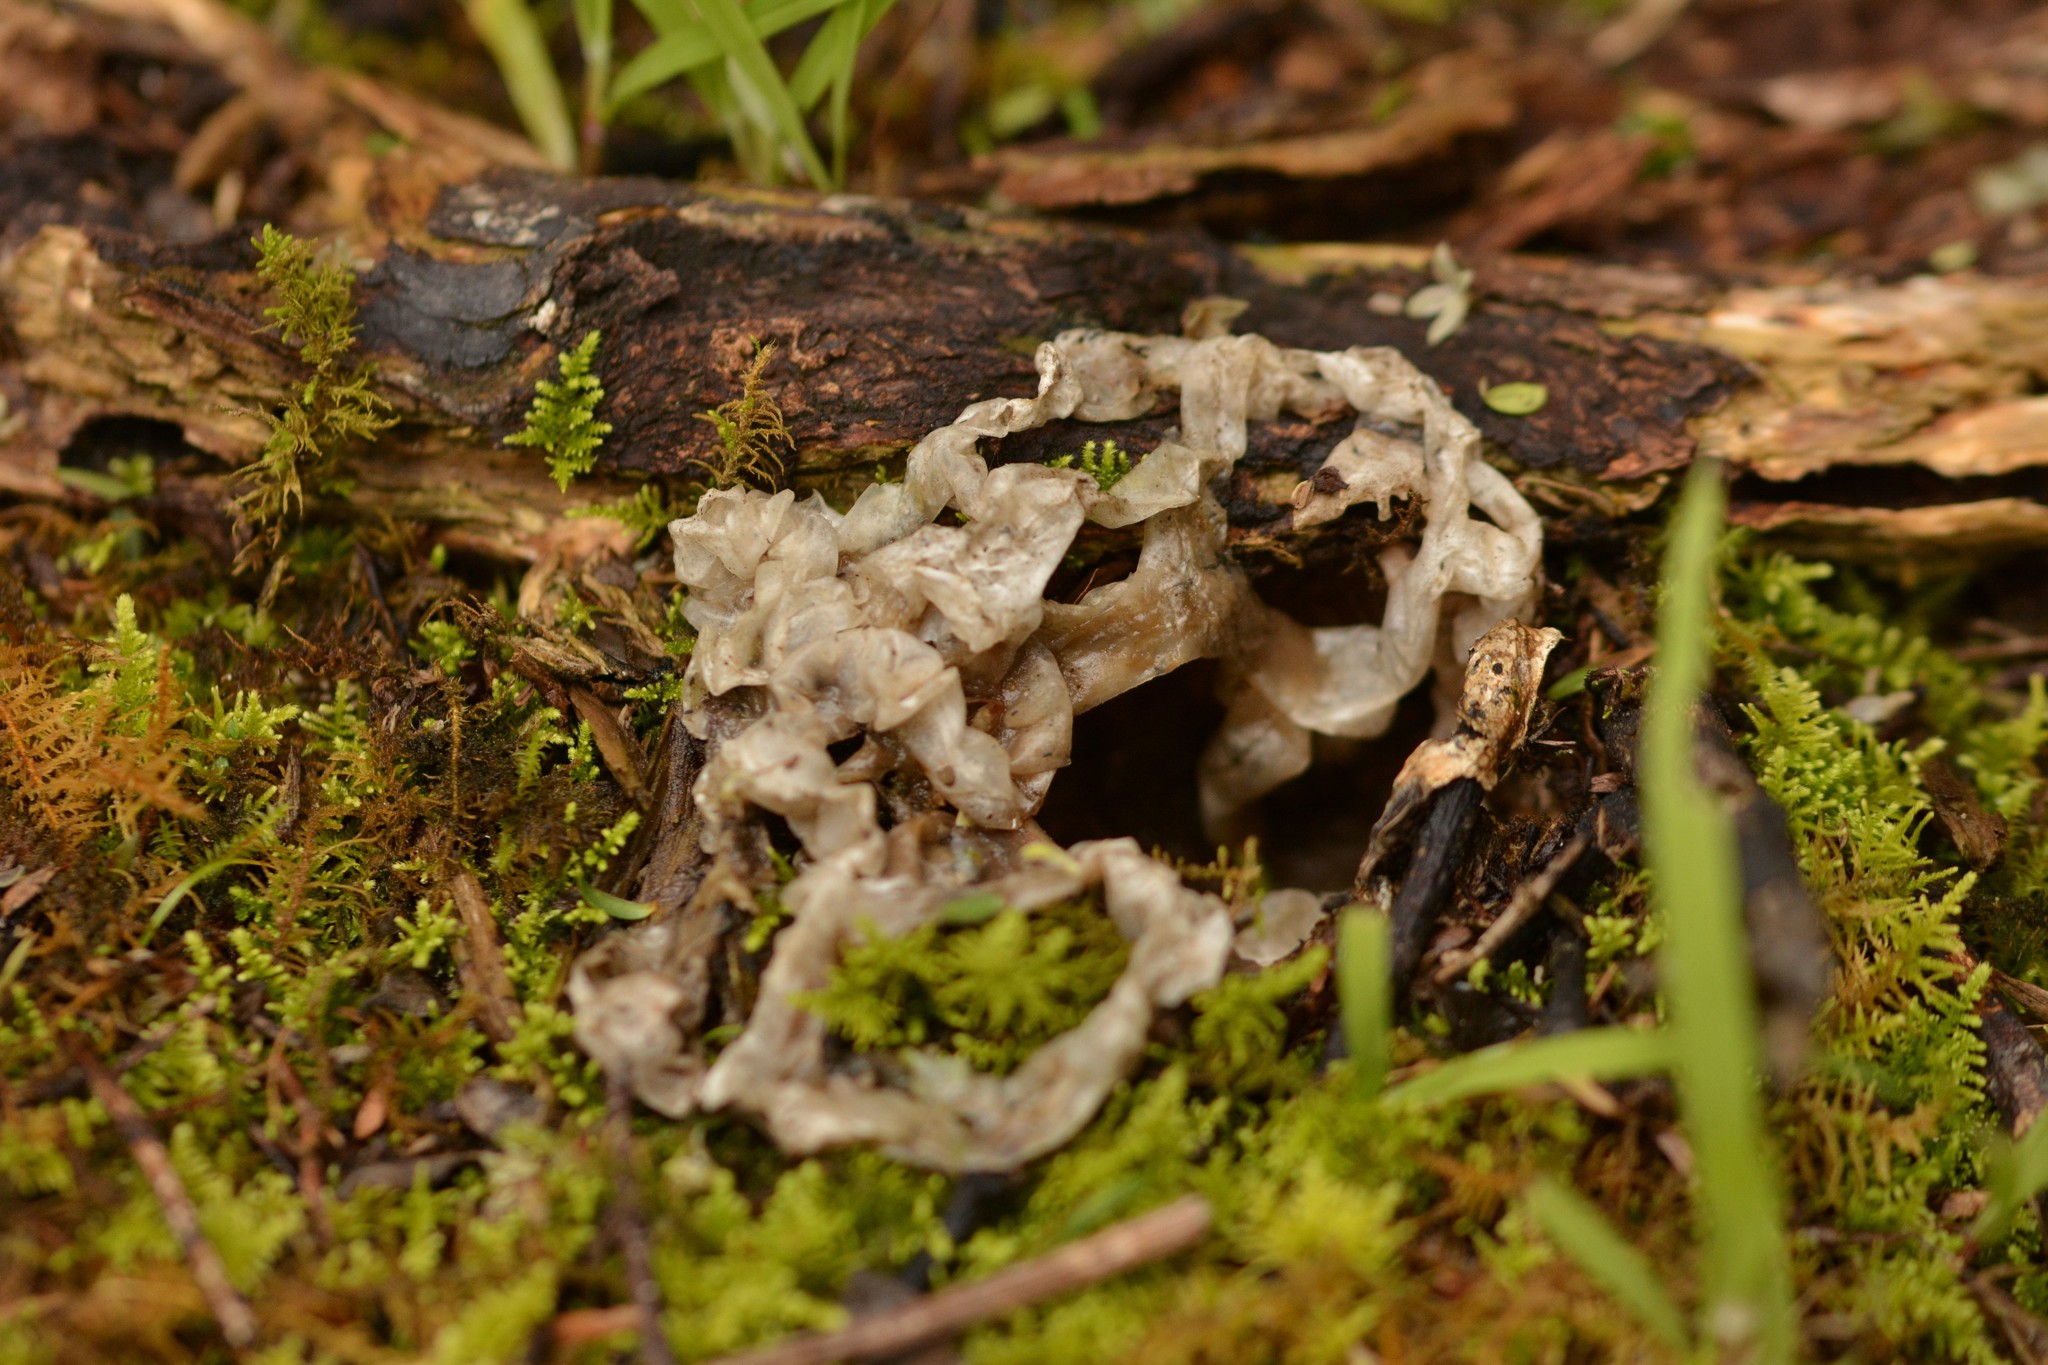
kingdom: Fungi
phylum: Basidiomycota
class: Agaricomycetes
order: Phallales
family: Phallaceae
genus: Ileodictyon
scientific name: Ileodictyon cibarium
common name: Basket fungus
